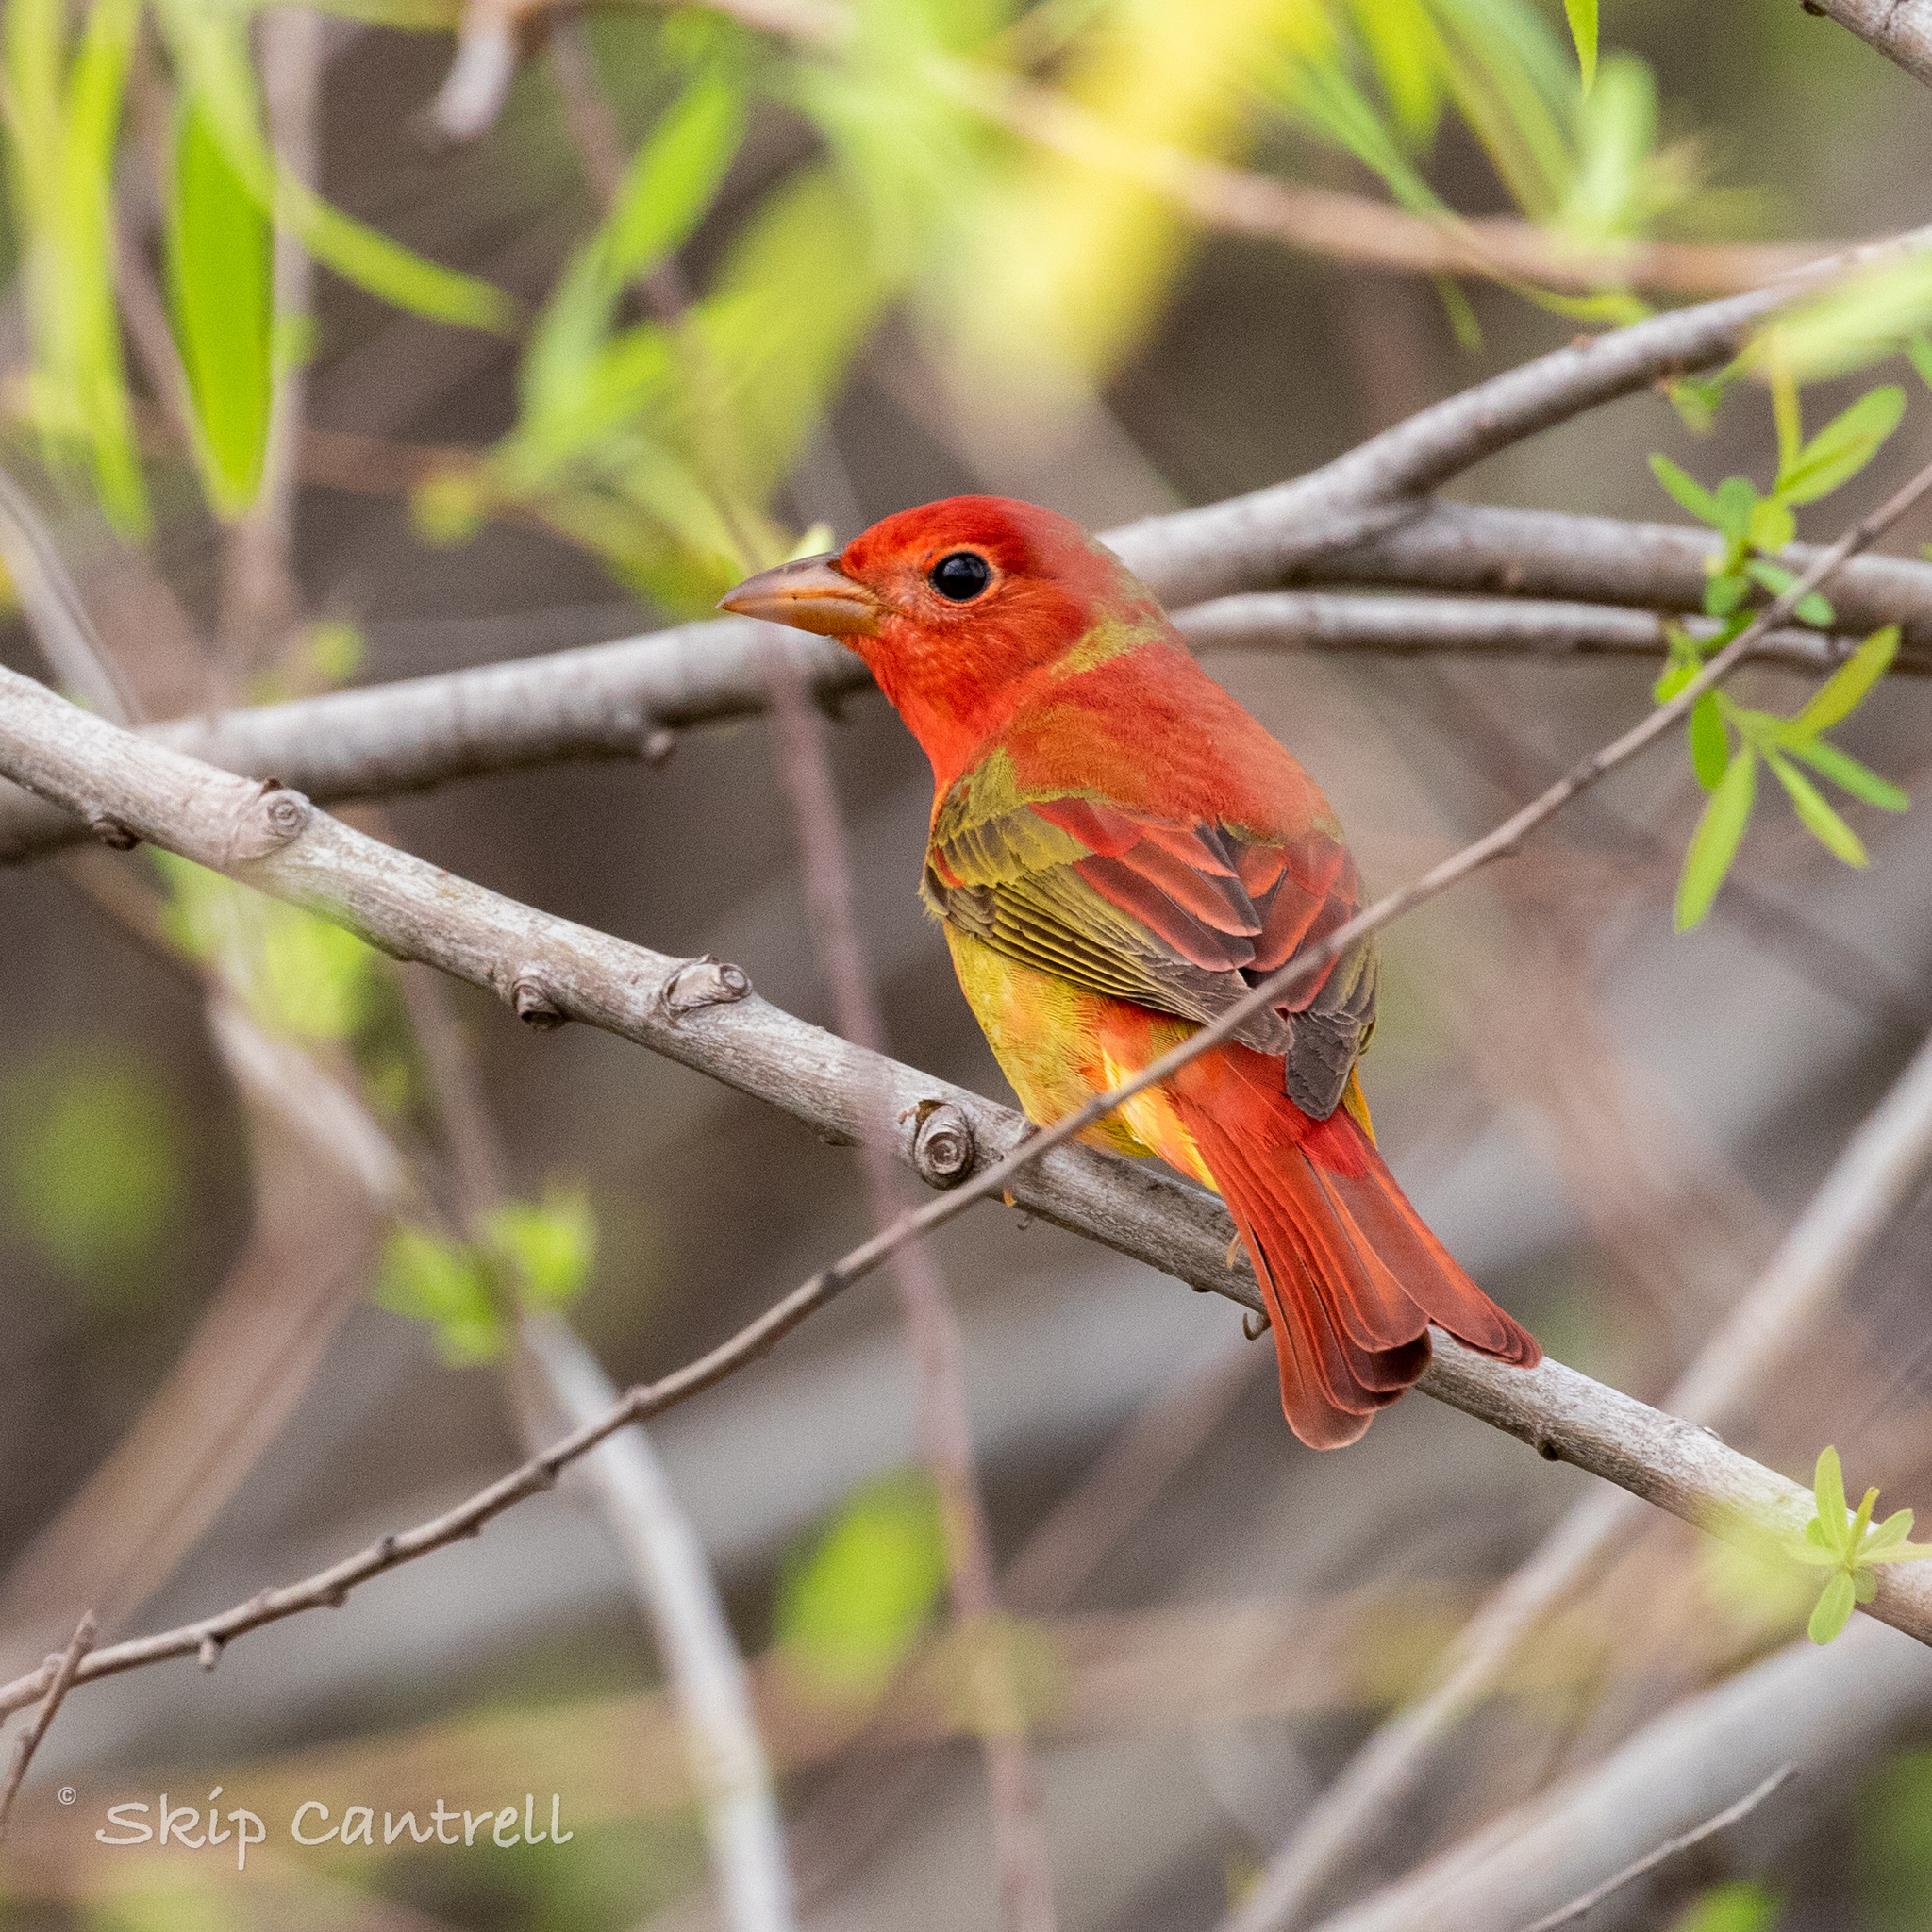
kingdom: Animalia
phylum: Chordata
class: Aves
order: Passeriformes
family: Cardinalidae
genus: Piranga
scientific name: Piranga rubra
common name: Summer tanager
